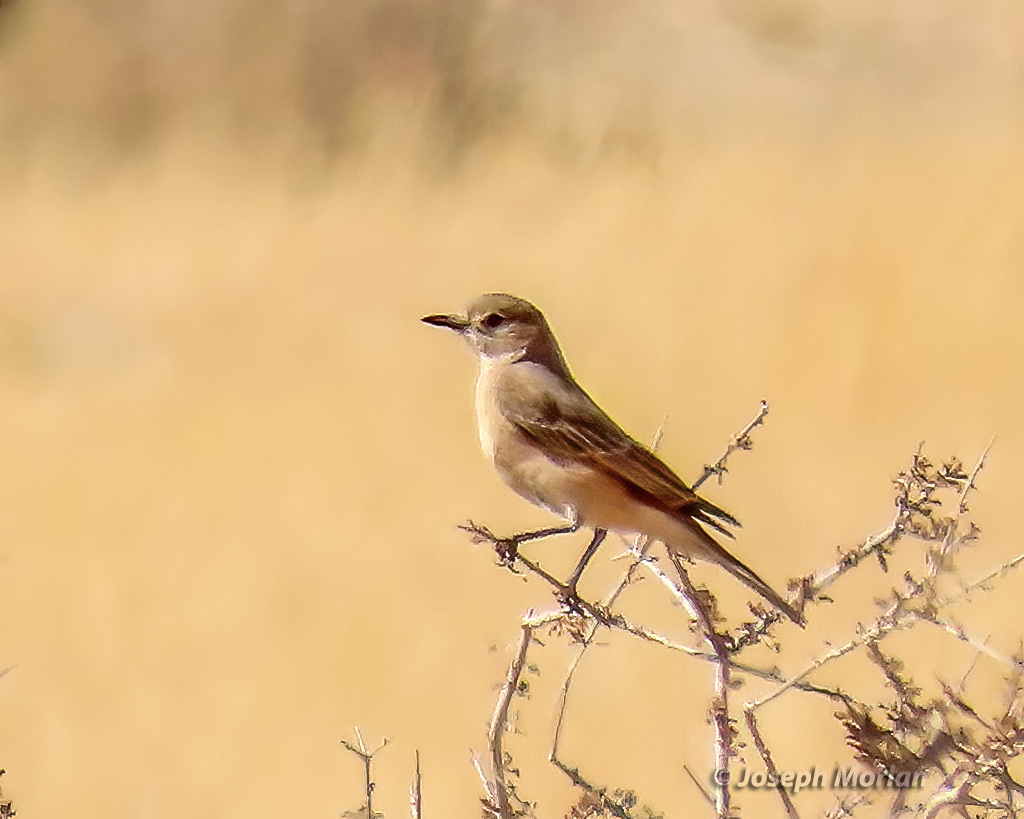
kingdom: Animalia
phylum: Chordata
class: Aves
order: Passeriformes
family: Muscicapidae
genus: Bradornis
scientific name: Bradornis infuscatus
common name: Chat flycatcher
